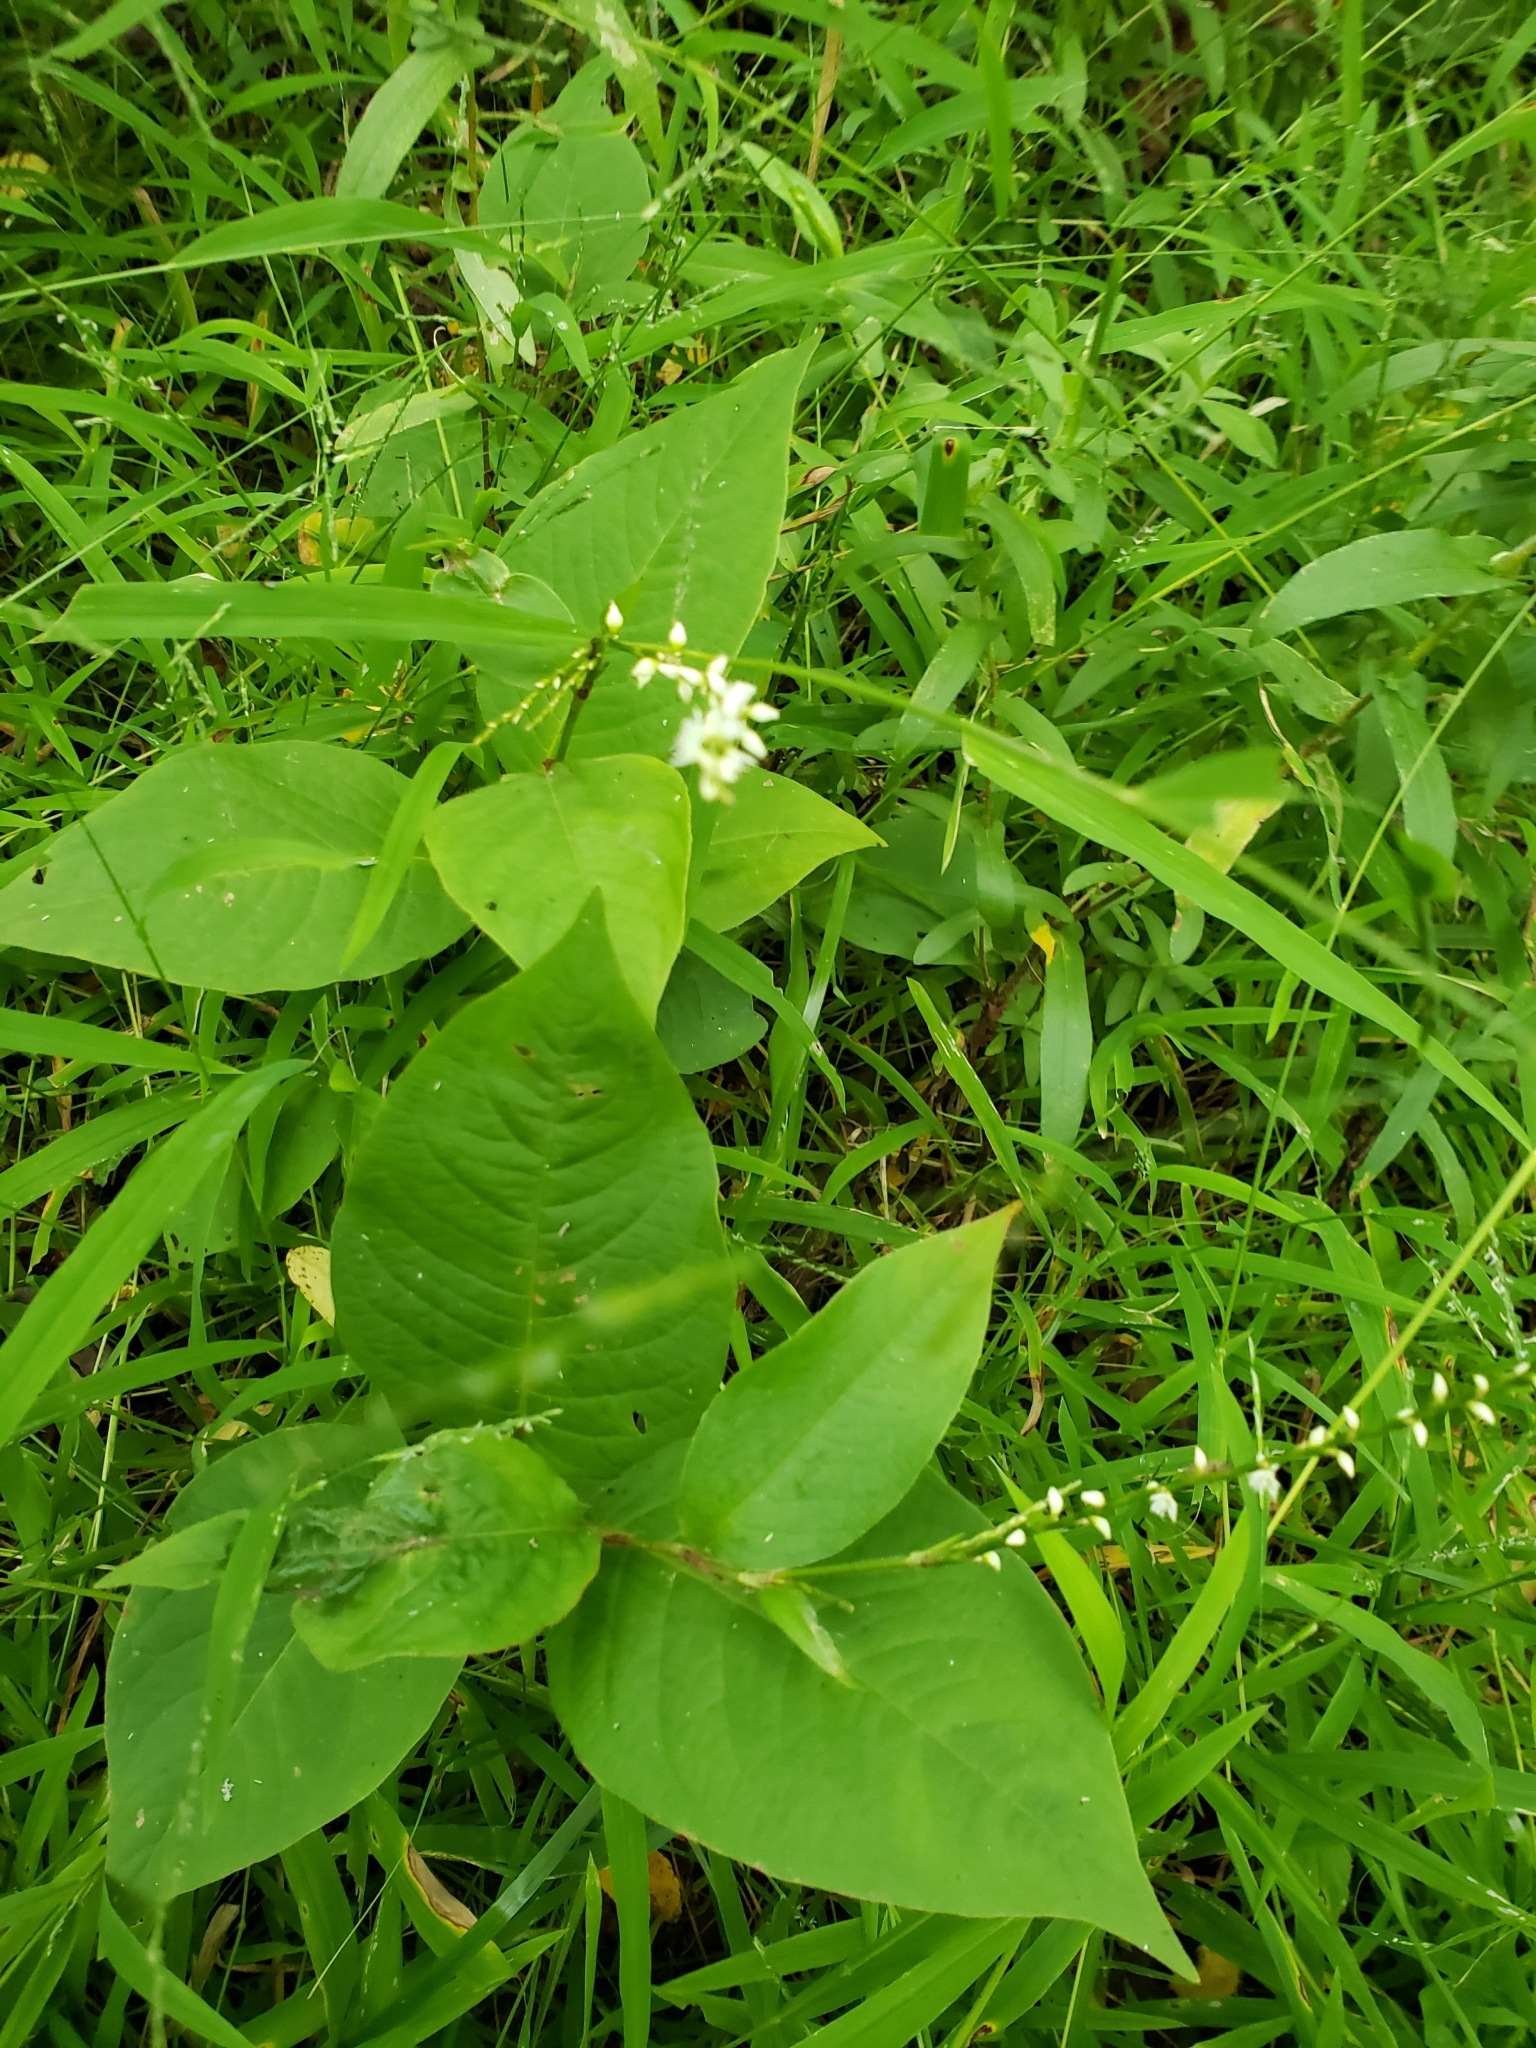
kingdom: Plantae
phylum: Tracheophyta
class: Magnoliopsida
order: Caryophyllales
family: Polygonaceae
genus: Persicaria
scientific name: Persicaria virginiana
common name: Jumpseed
